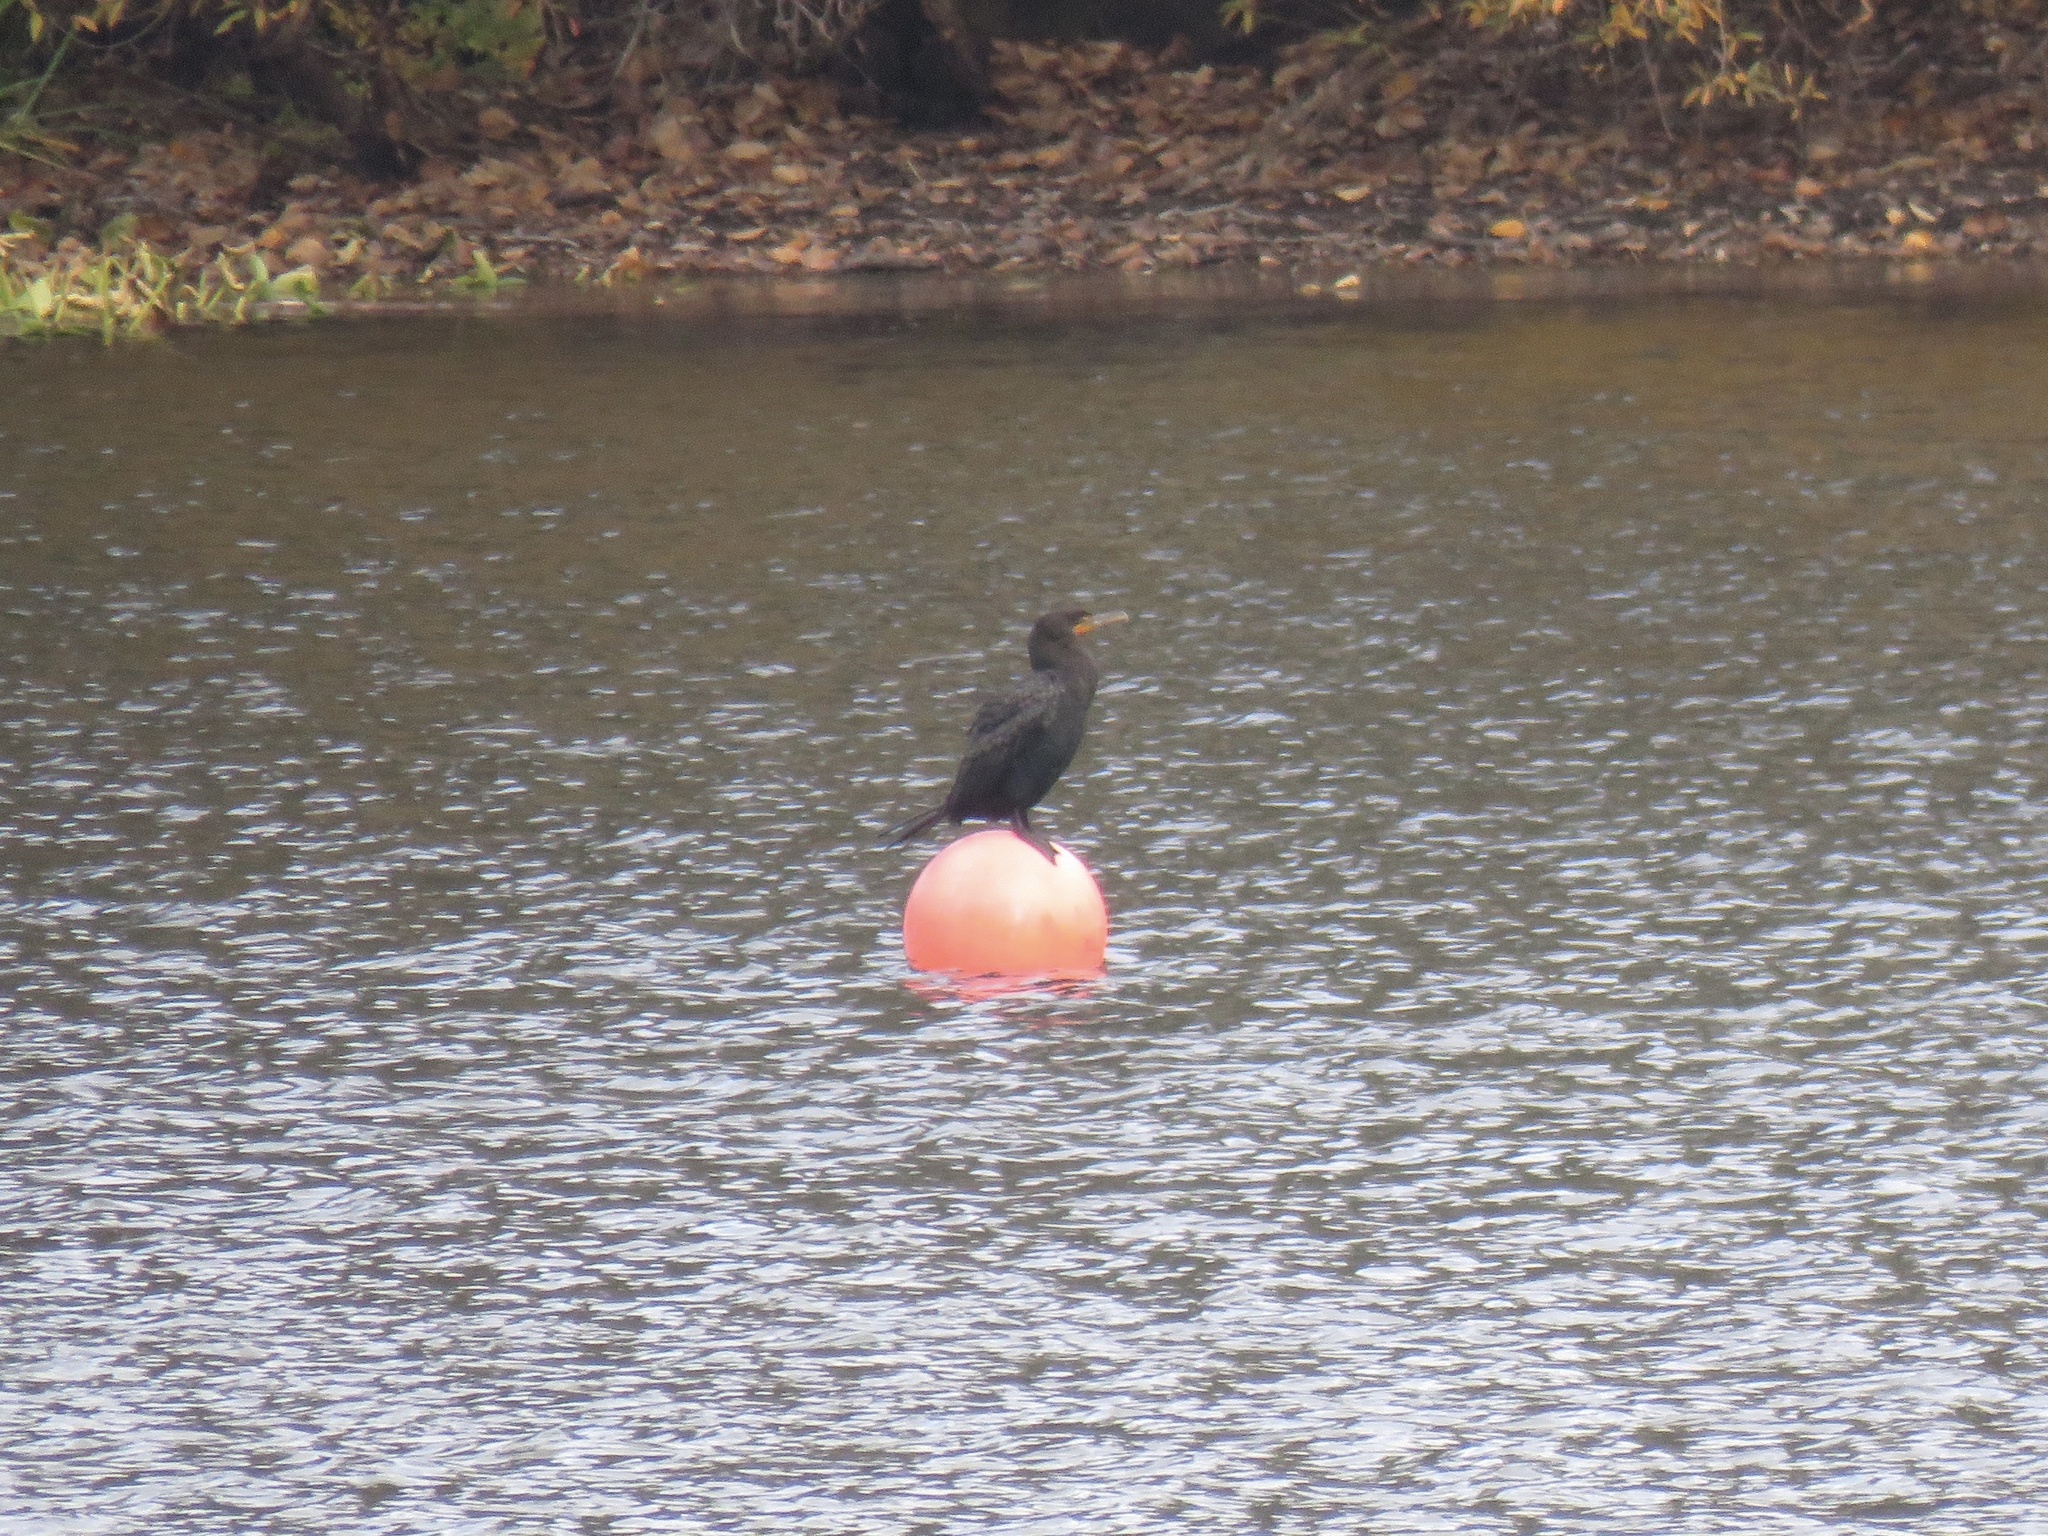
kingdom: Animalia
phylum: Chordata
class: Aves
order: Suliformes
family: Phalacrocoracidae
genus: Phalacrocorax
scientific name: Phalacrocorax auritus
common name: Double-crested cormorant
